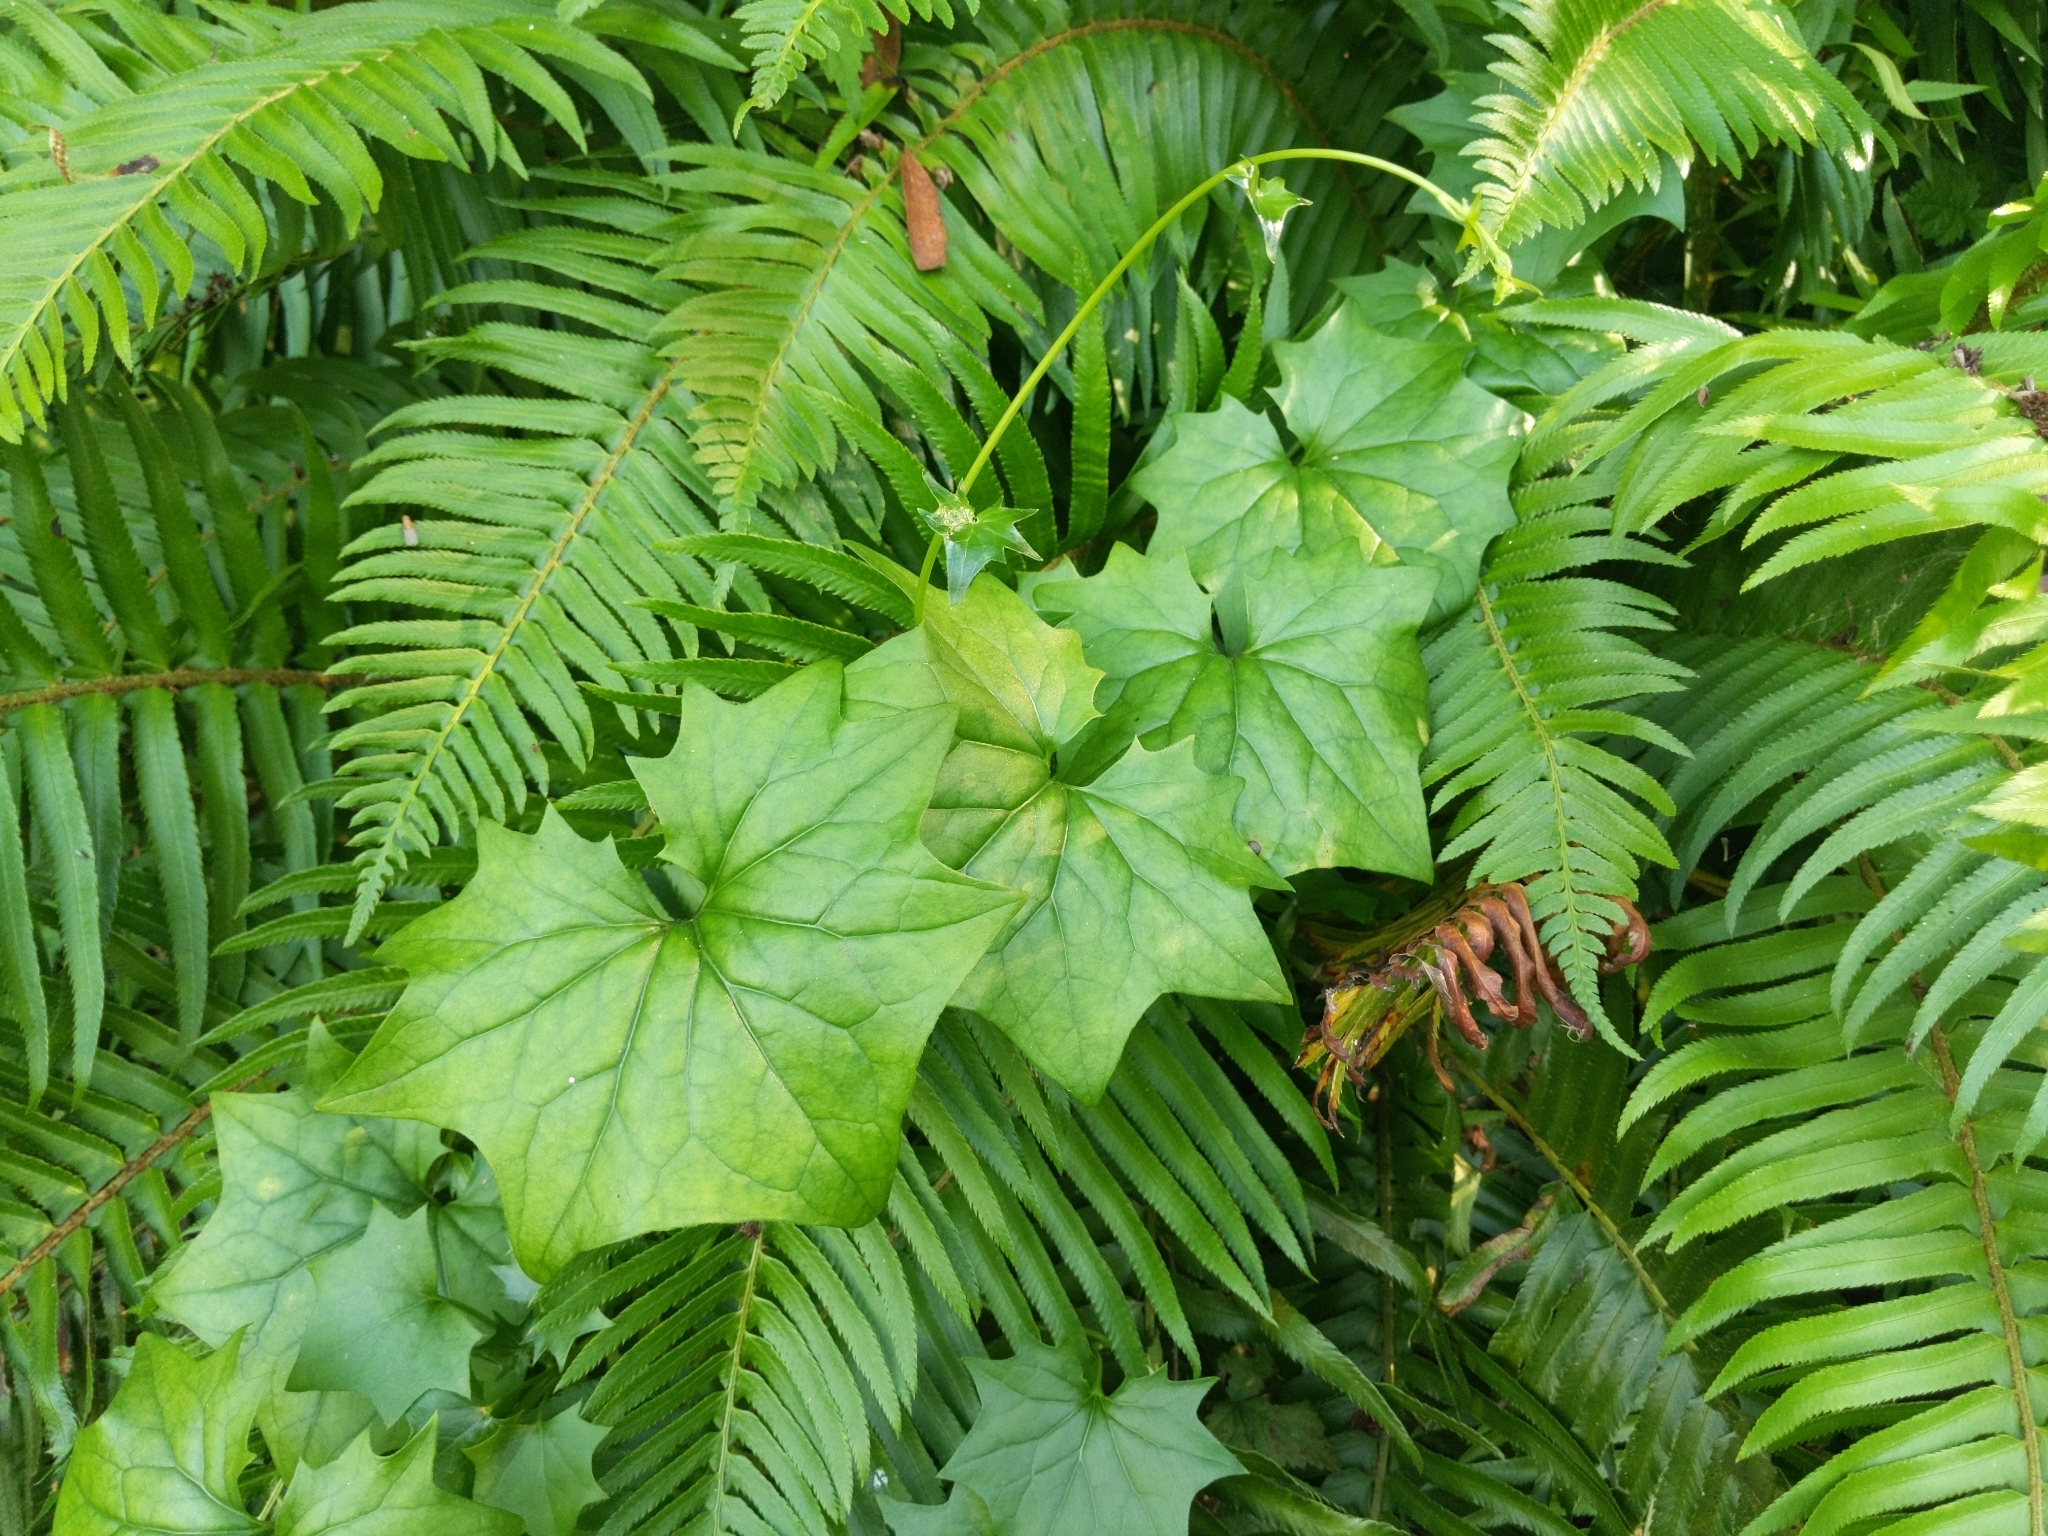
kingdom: Plantae
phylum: Tracheophyta
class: Magnoliopsida
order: Asterales
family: Asteraceae
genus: Delairea
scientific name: Delairea odorata
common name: Cape-ivy
